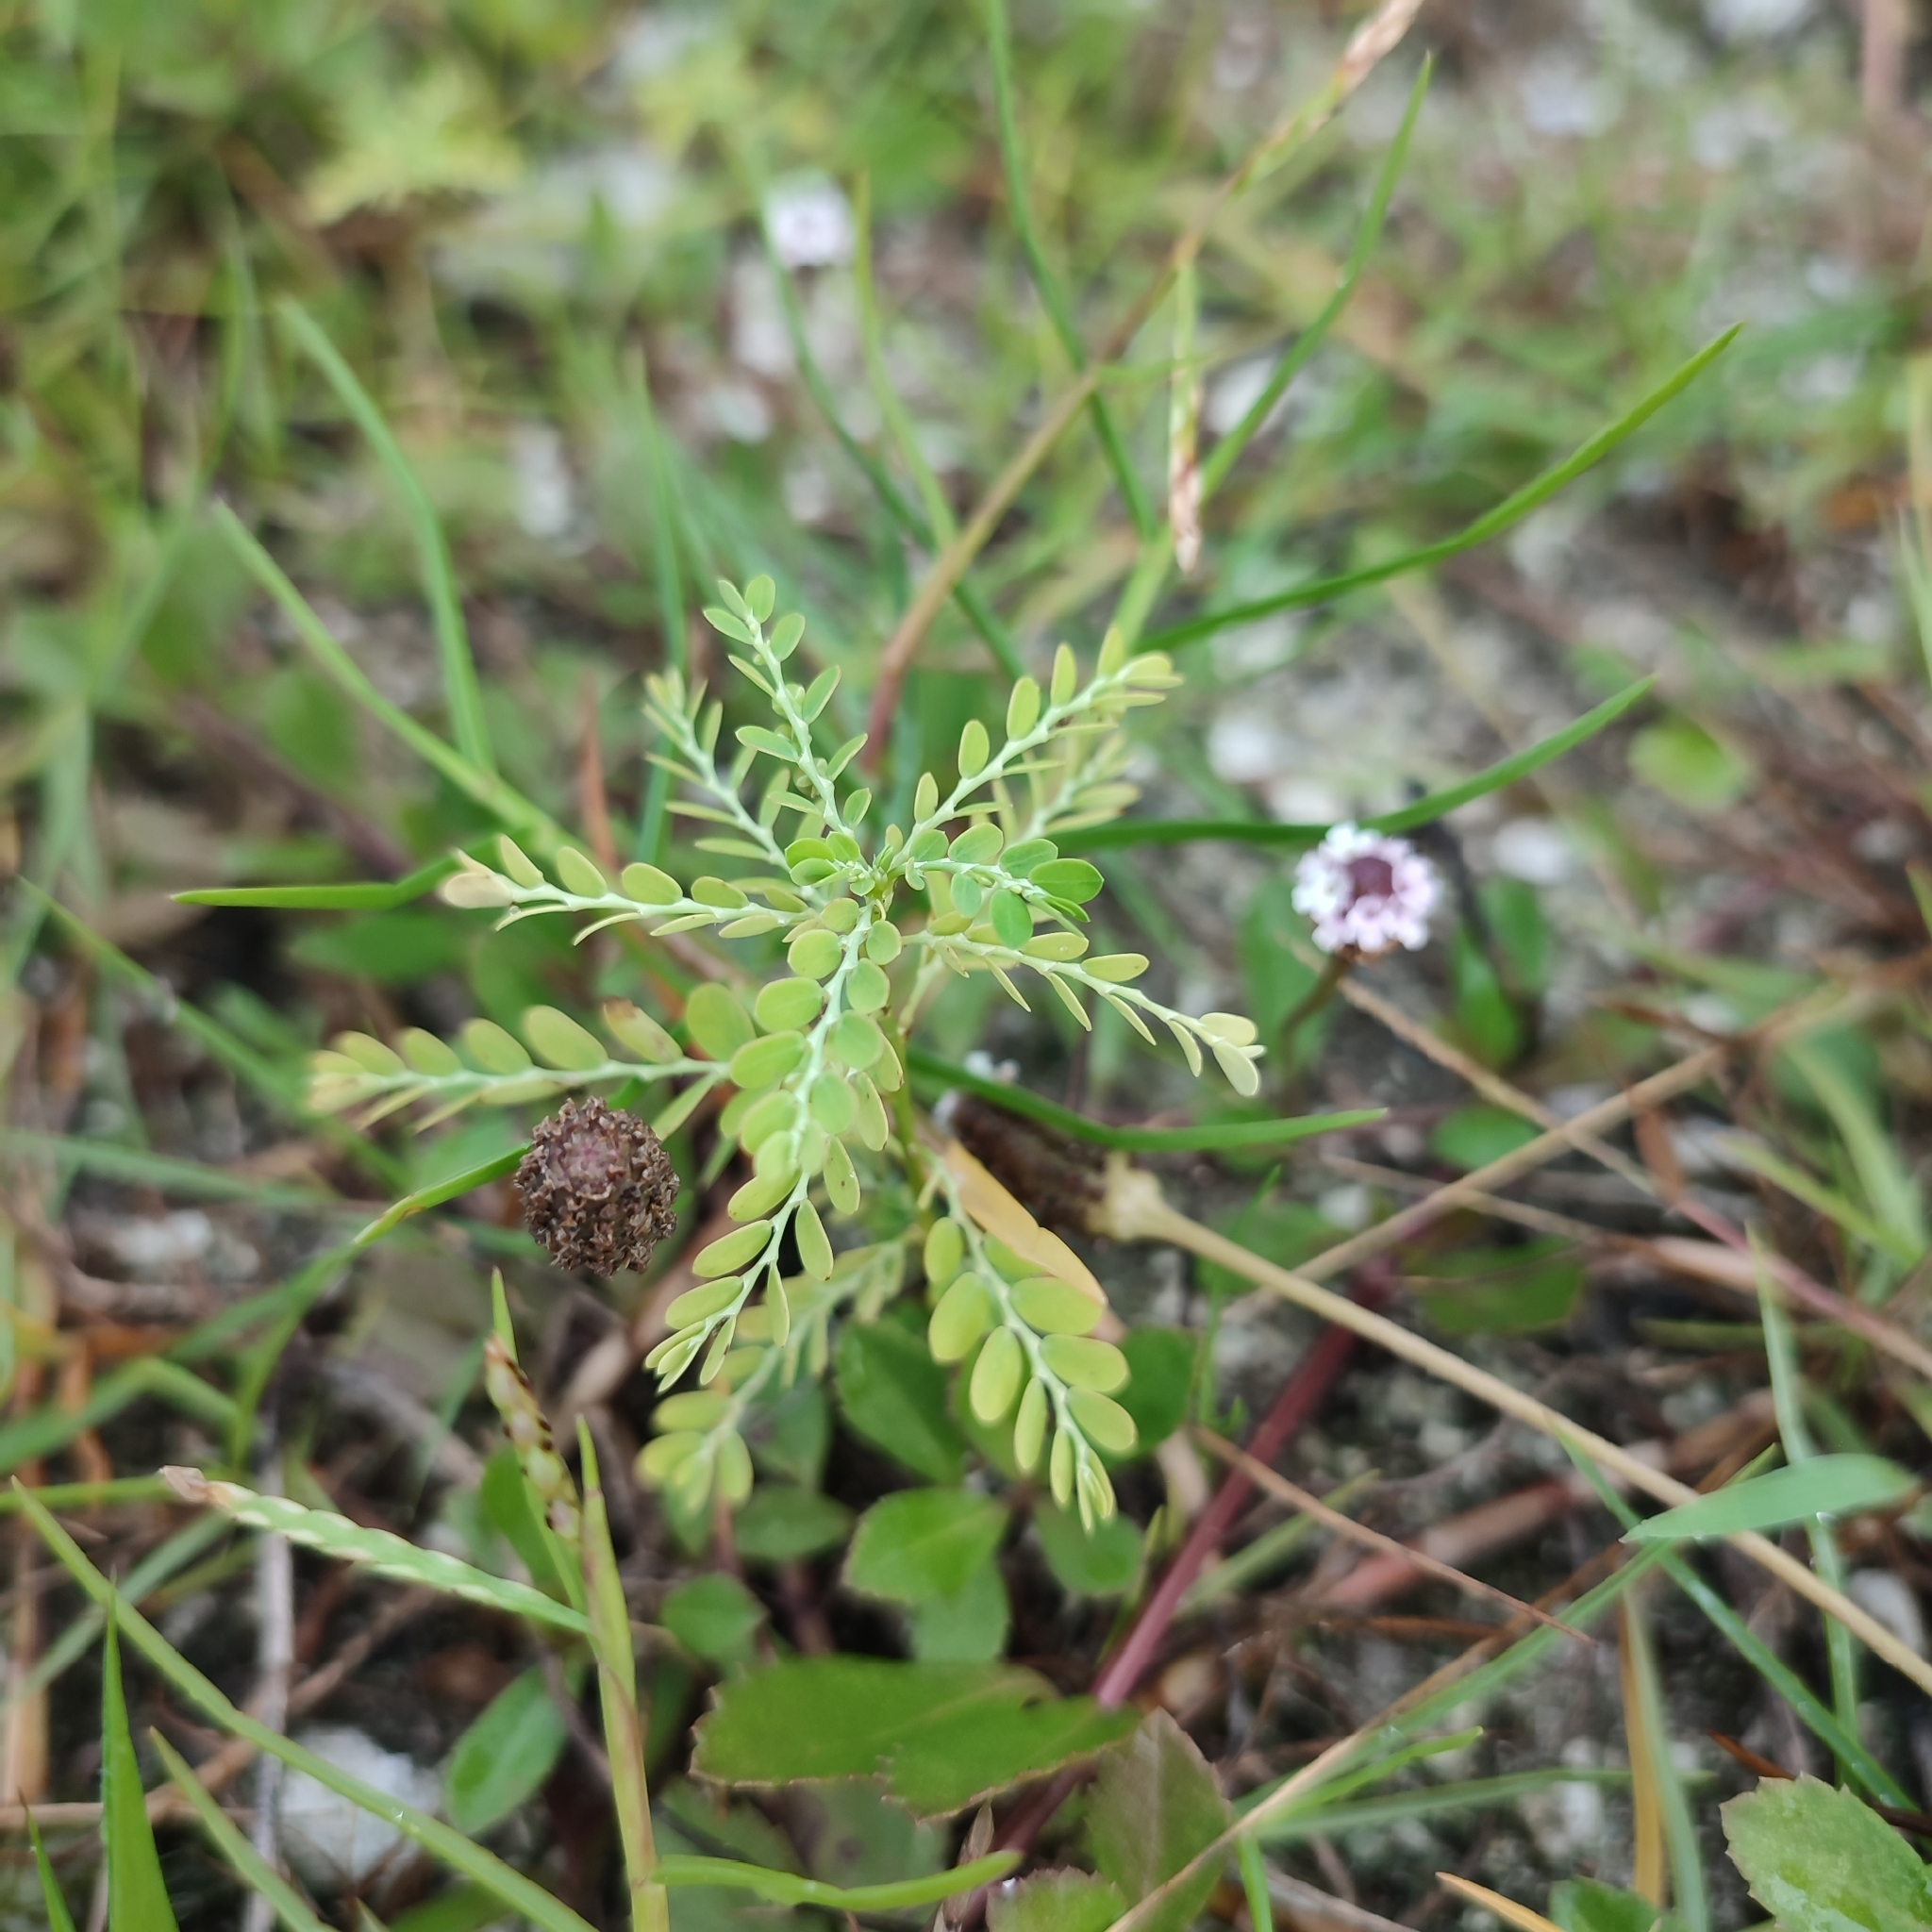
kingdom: Plantae
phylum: Tracheophyta
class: Magnoliopsida
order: Malpighiales
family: Phyllanthaceae
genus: Phyllanthus
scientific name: Phyllanthus amarus
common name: Carry me seed
